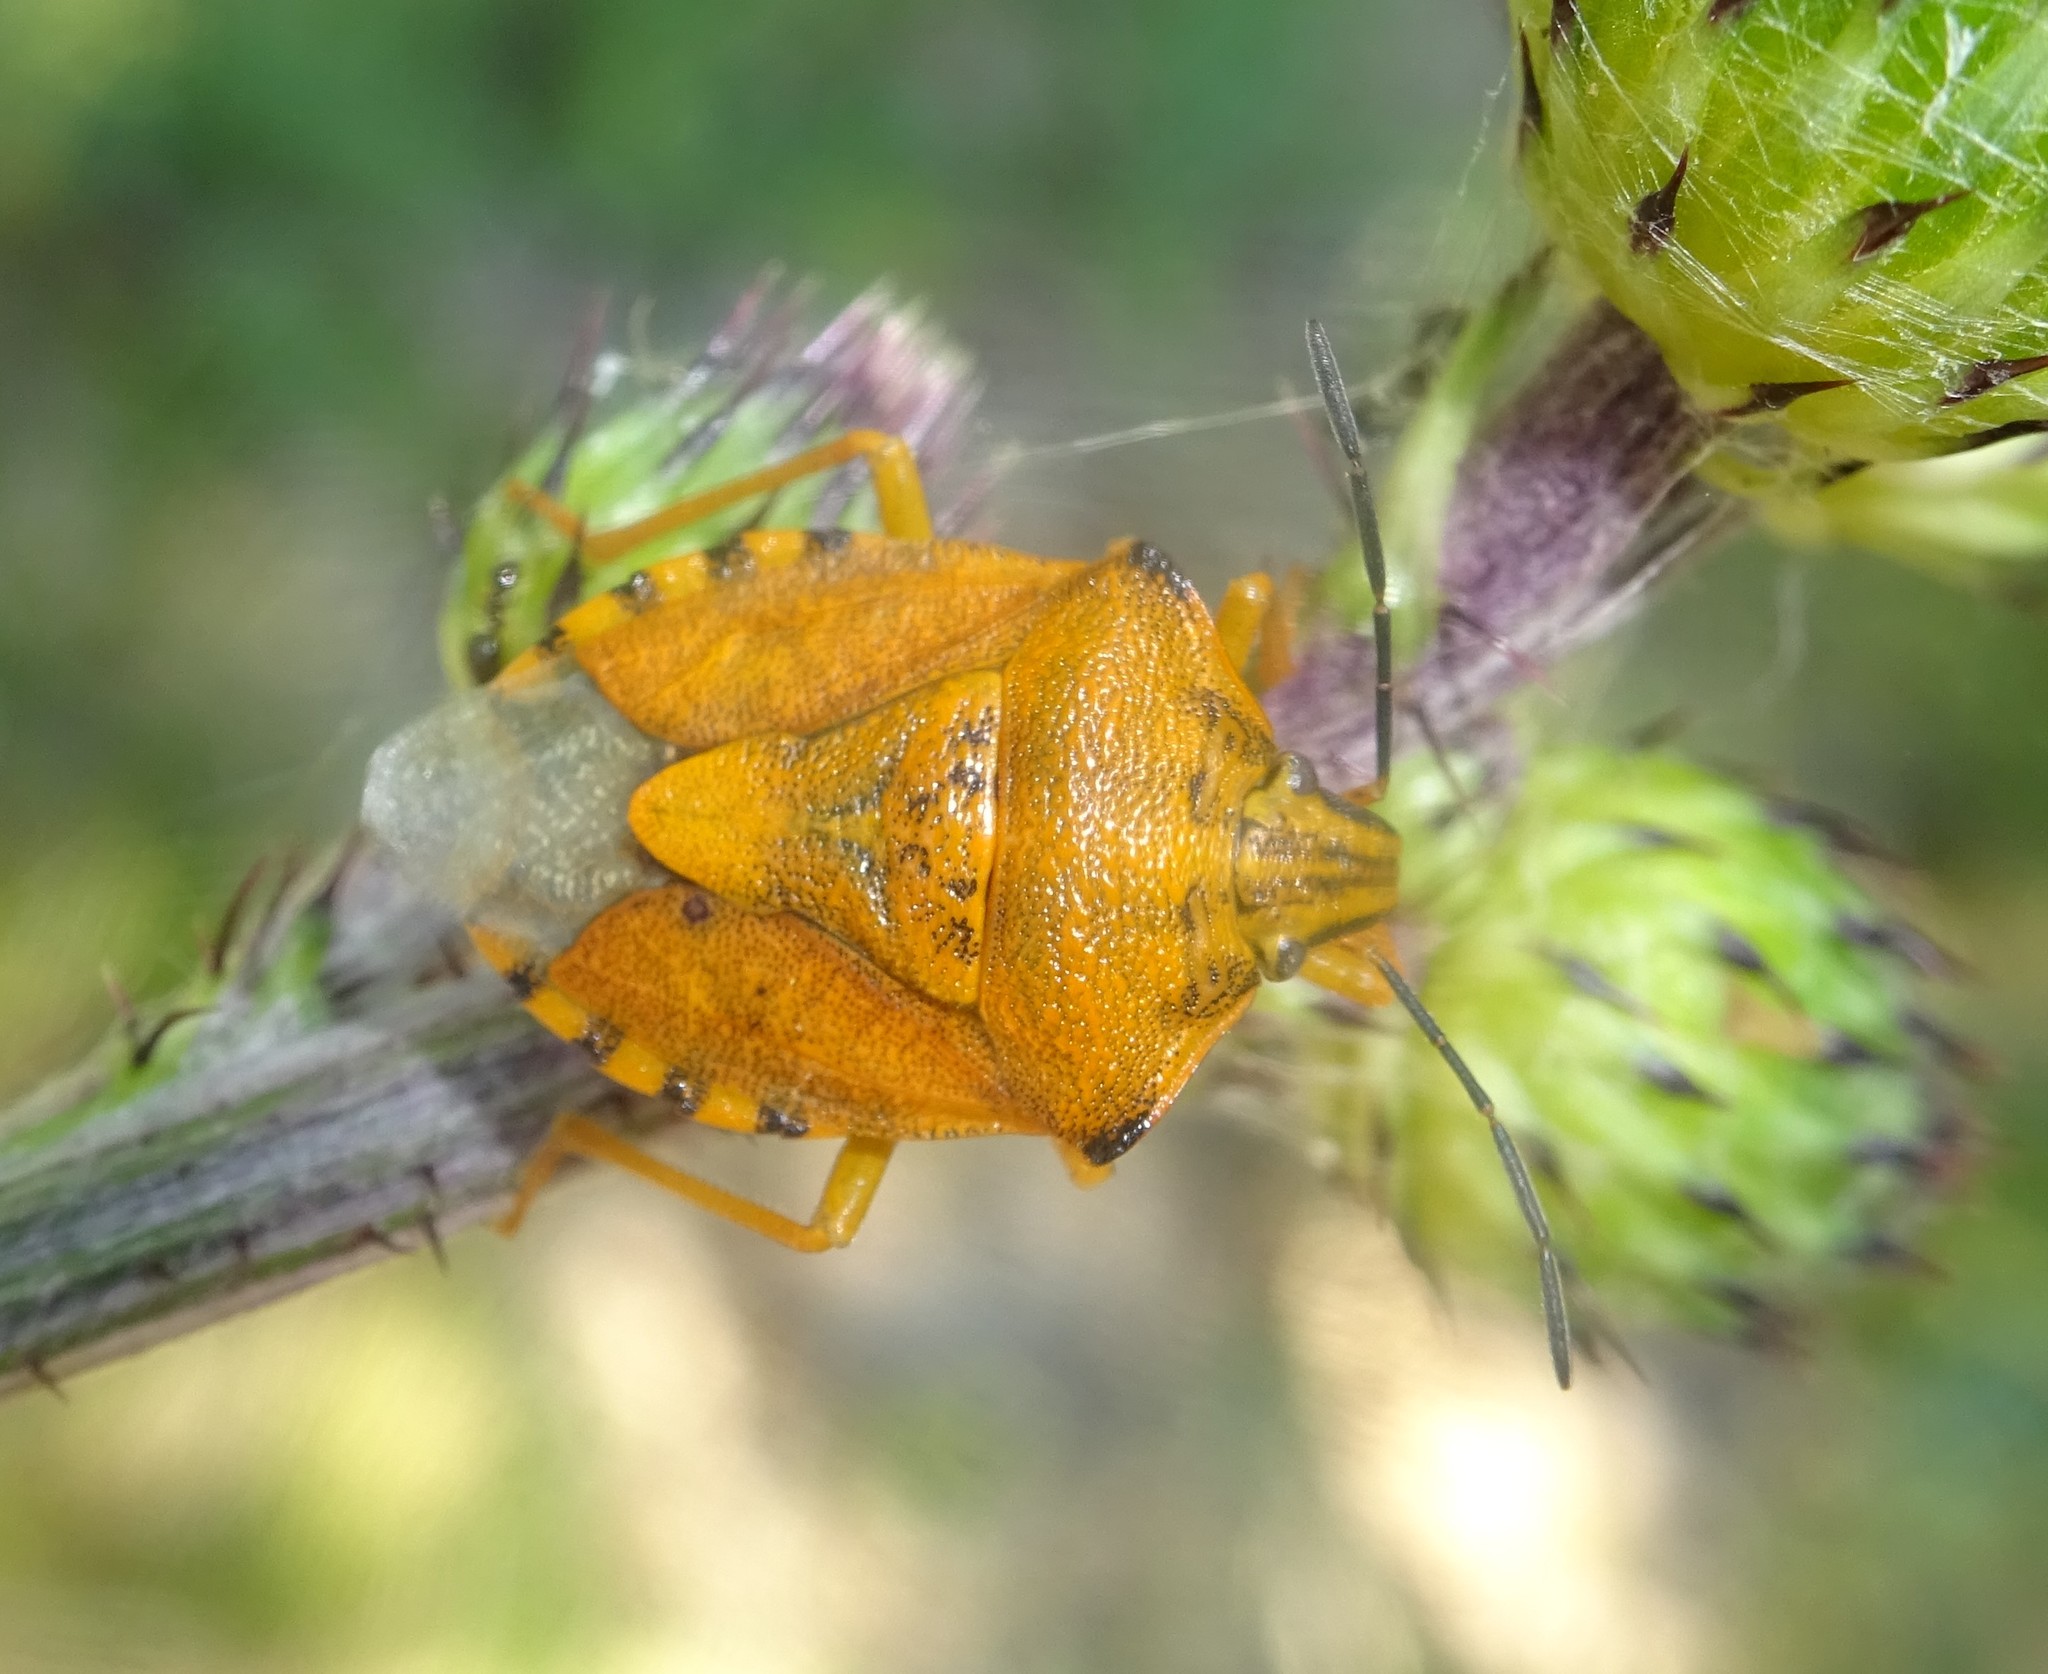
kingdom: Animalia
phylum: Arthropoda
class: Insecta
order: Hemiptera
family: Pentatomidae
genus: Carpocoris
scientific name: Carpocoris purpureipennis
